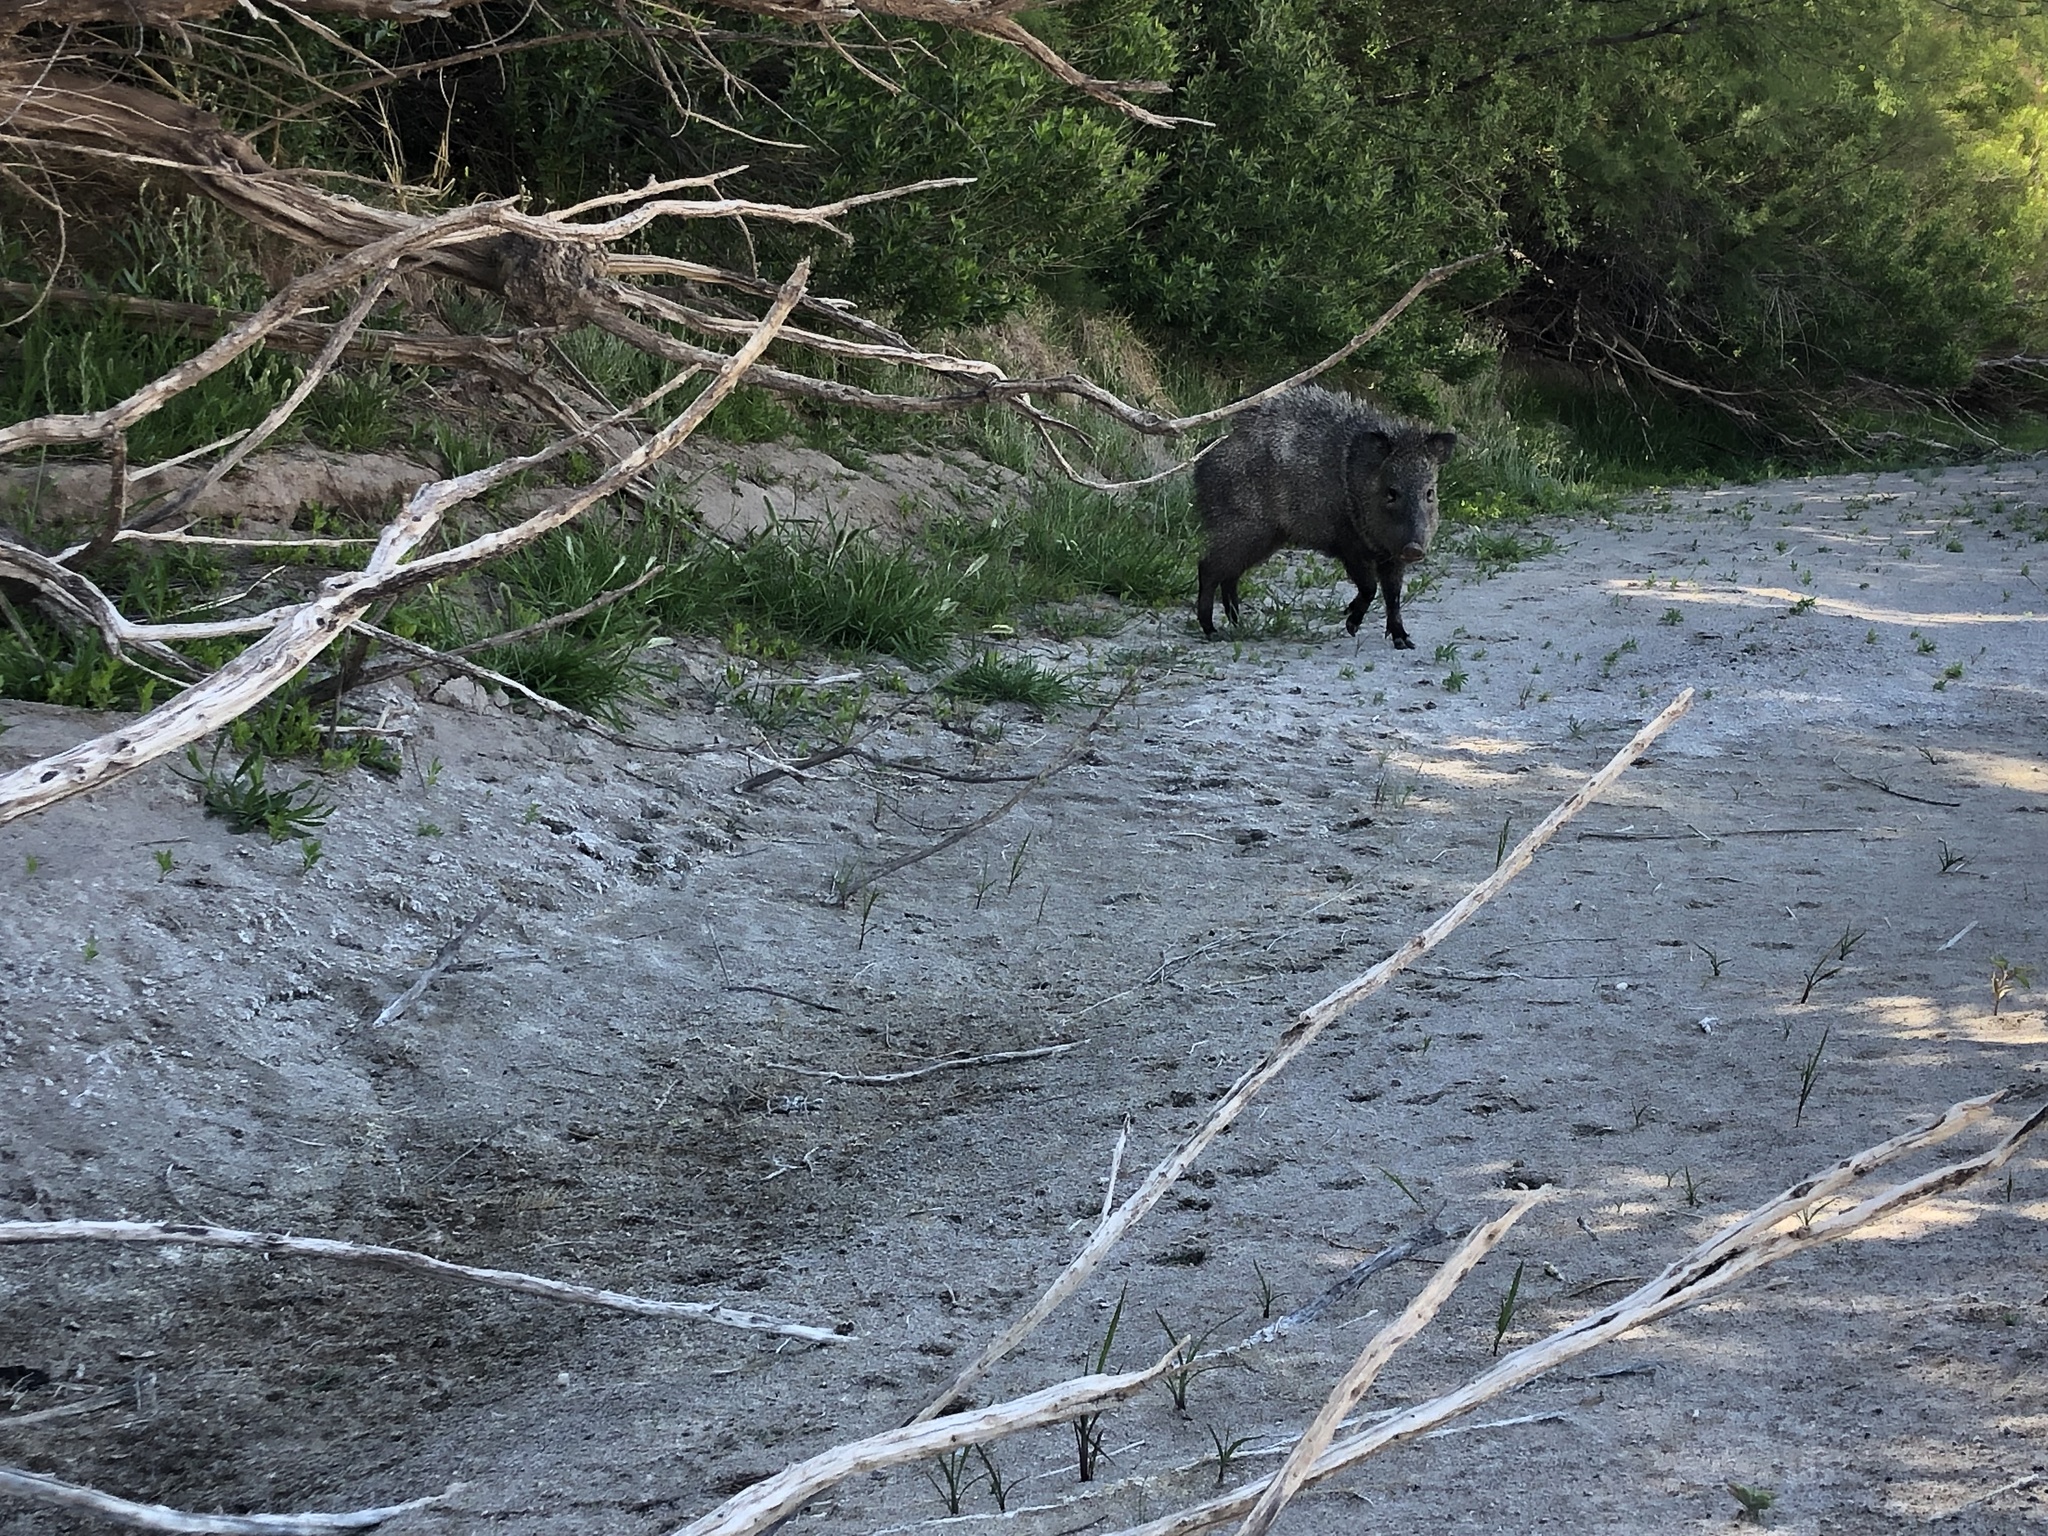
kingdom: Animalia
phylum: Chordata
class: Mammalia
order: Artiodactyla
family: Tayassuidae
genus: Pecari
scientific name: Pecari tajacu
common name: Collared peccary
